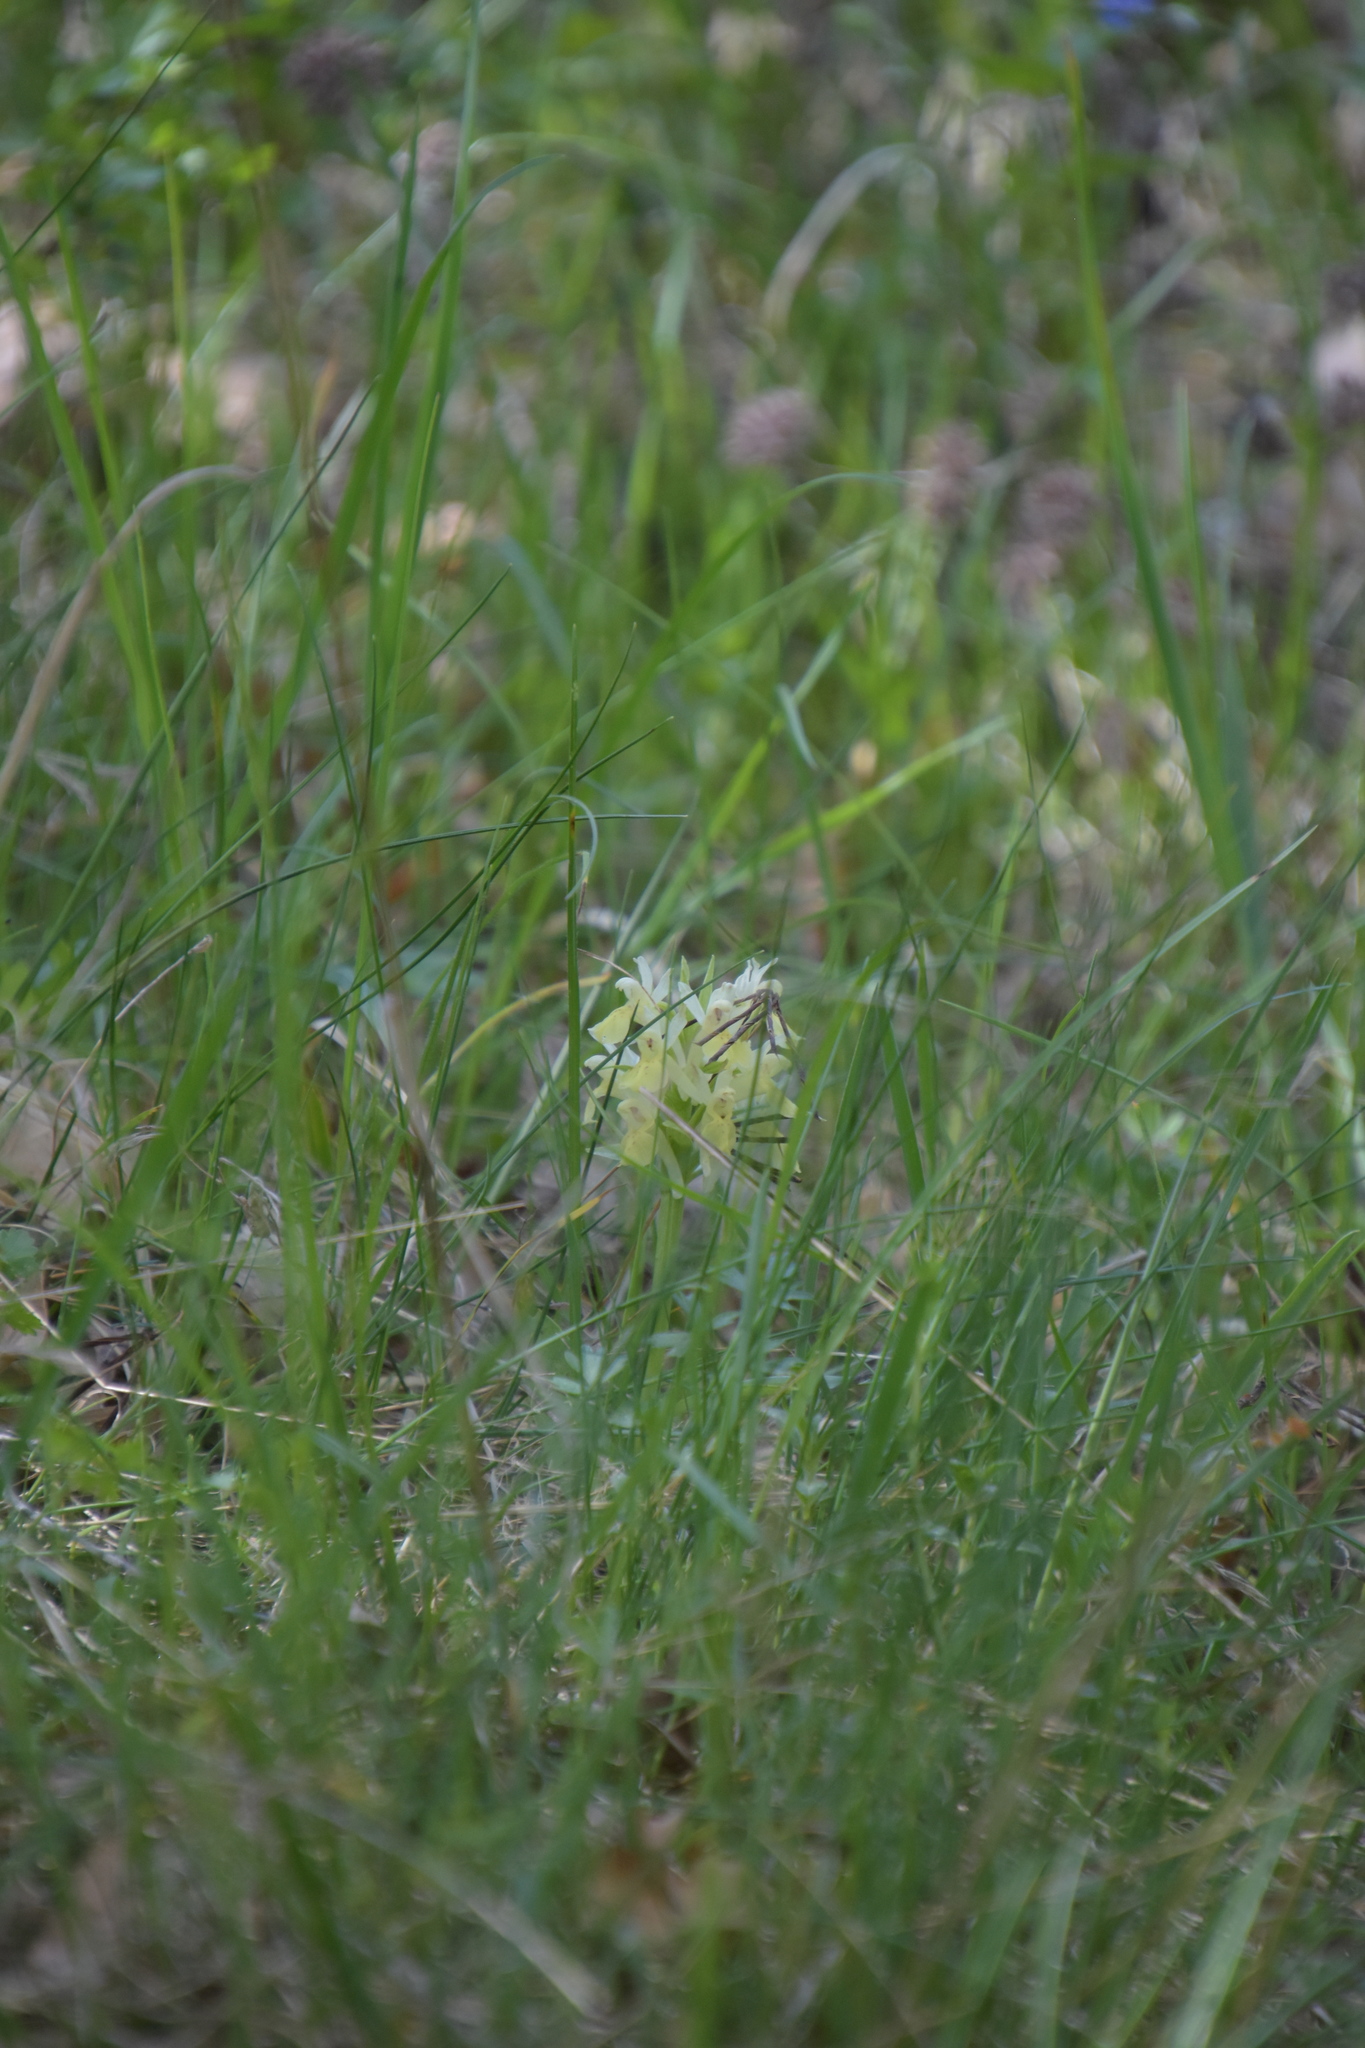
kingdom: Plantae
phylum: Tracheophyta
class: Liliopsida
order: Asparagales
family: Orchidaceae
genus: Dactylorhiza
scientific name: Dactylorhiza sambucina
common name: Elder-flowered orchid
